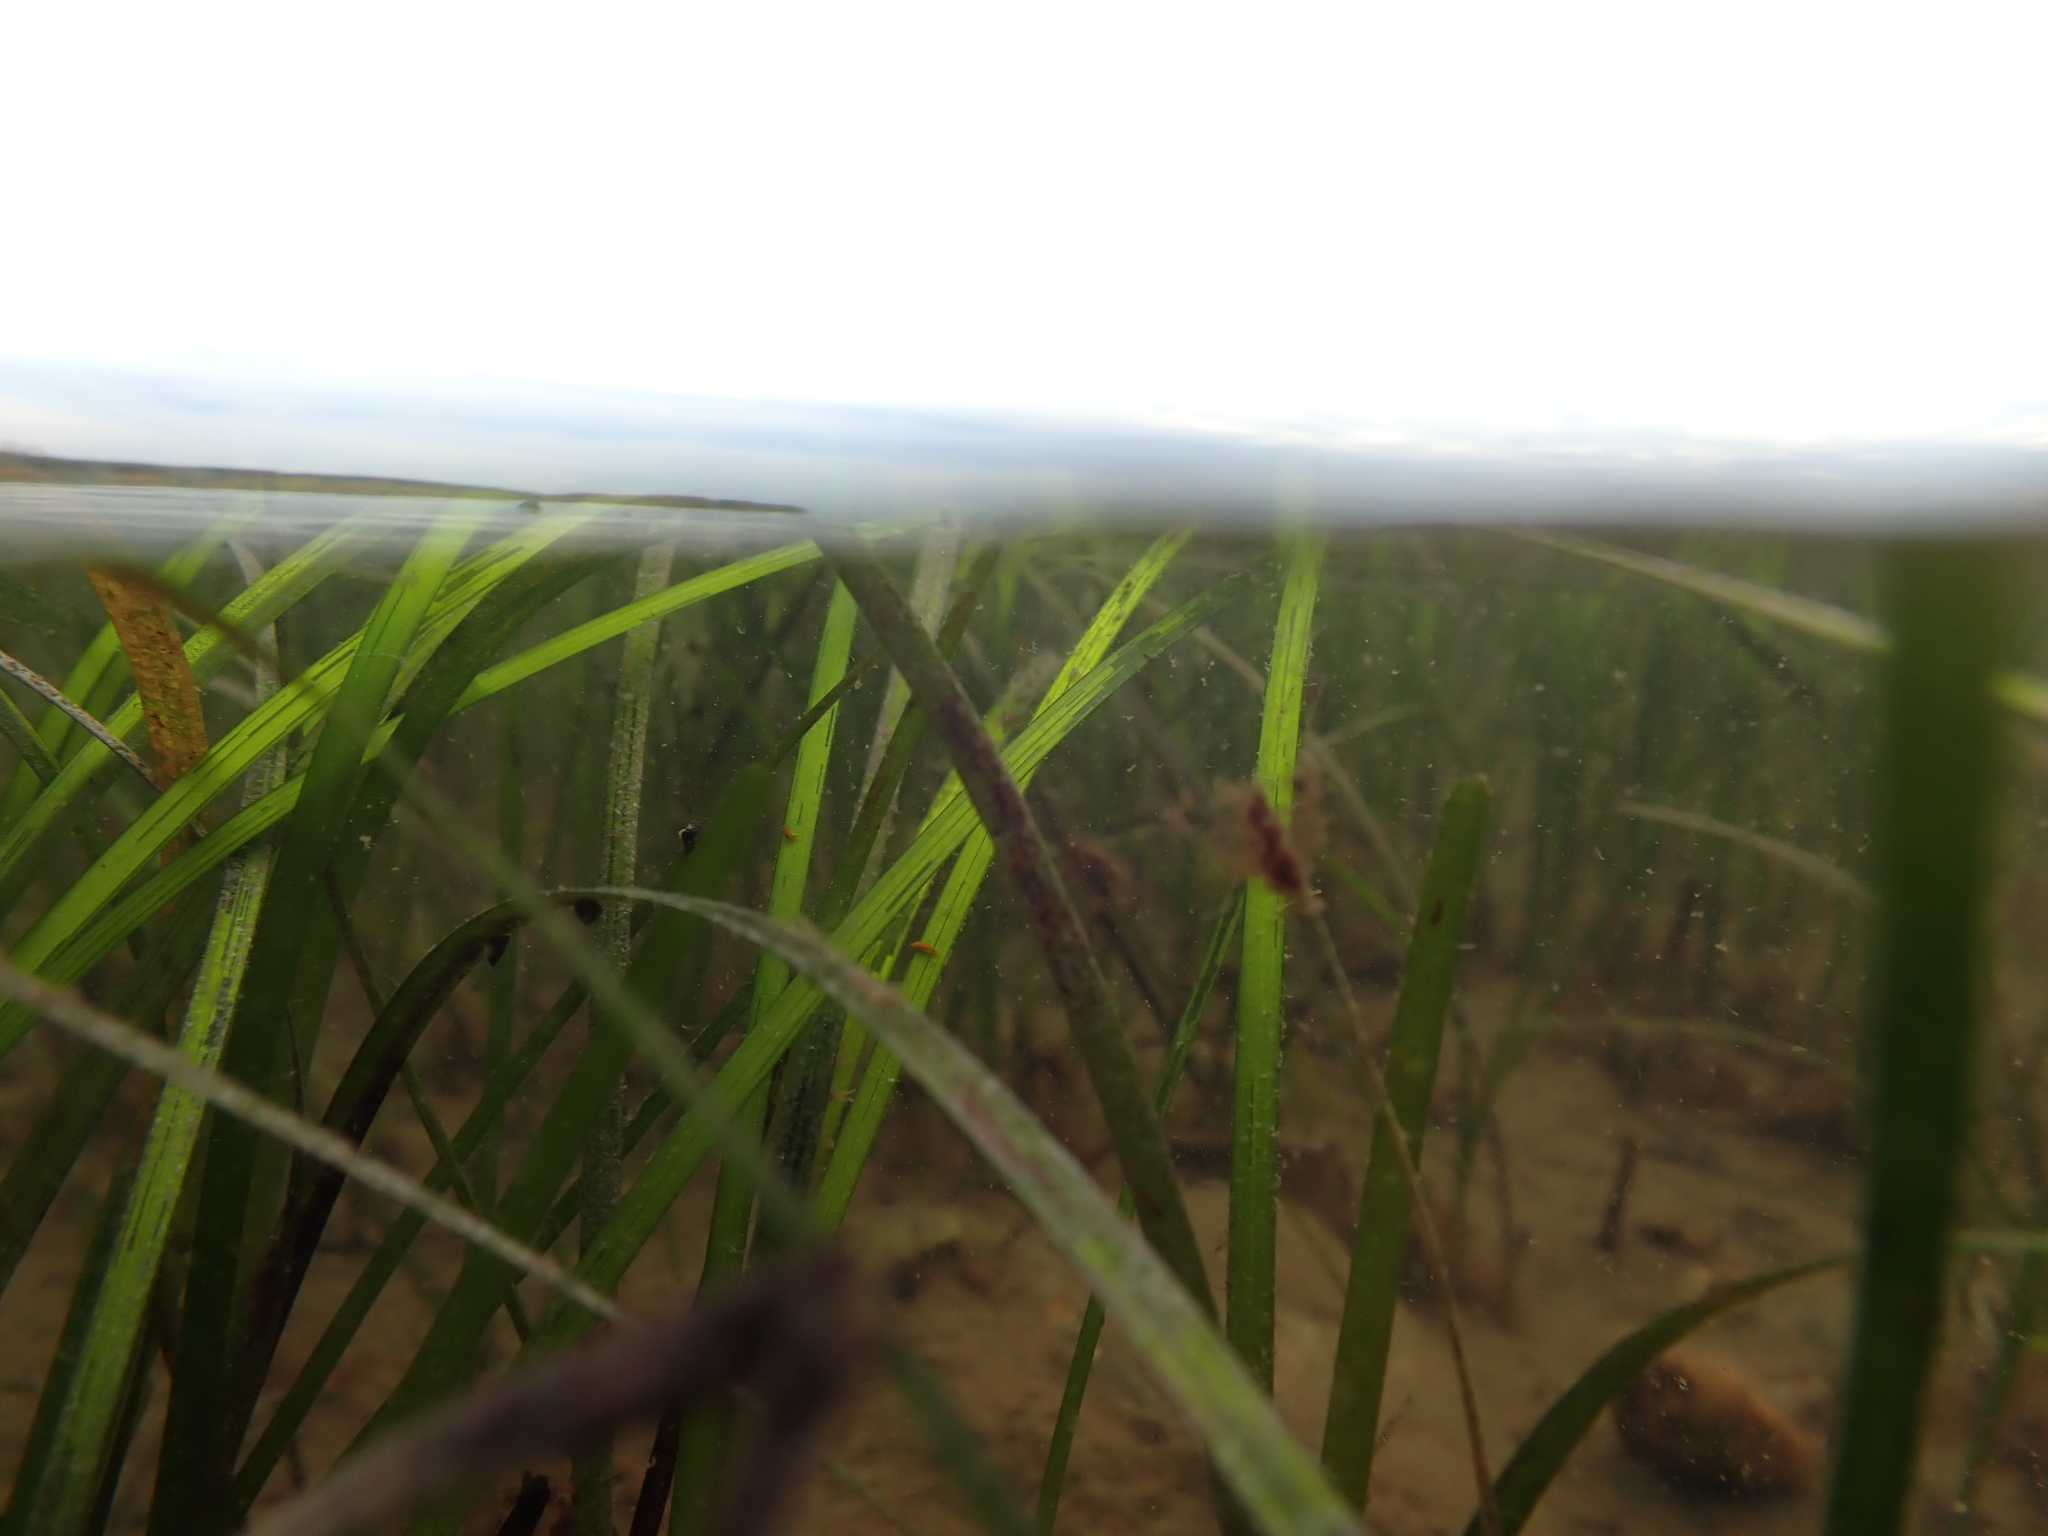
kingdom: Plantae
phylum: Tracheophyta
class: Liliopsida
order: Alismatales
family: Zosteraceae
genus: Zostera
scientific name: Zostera marina
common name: Eelgrass
